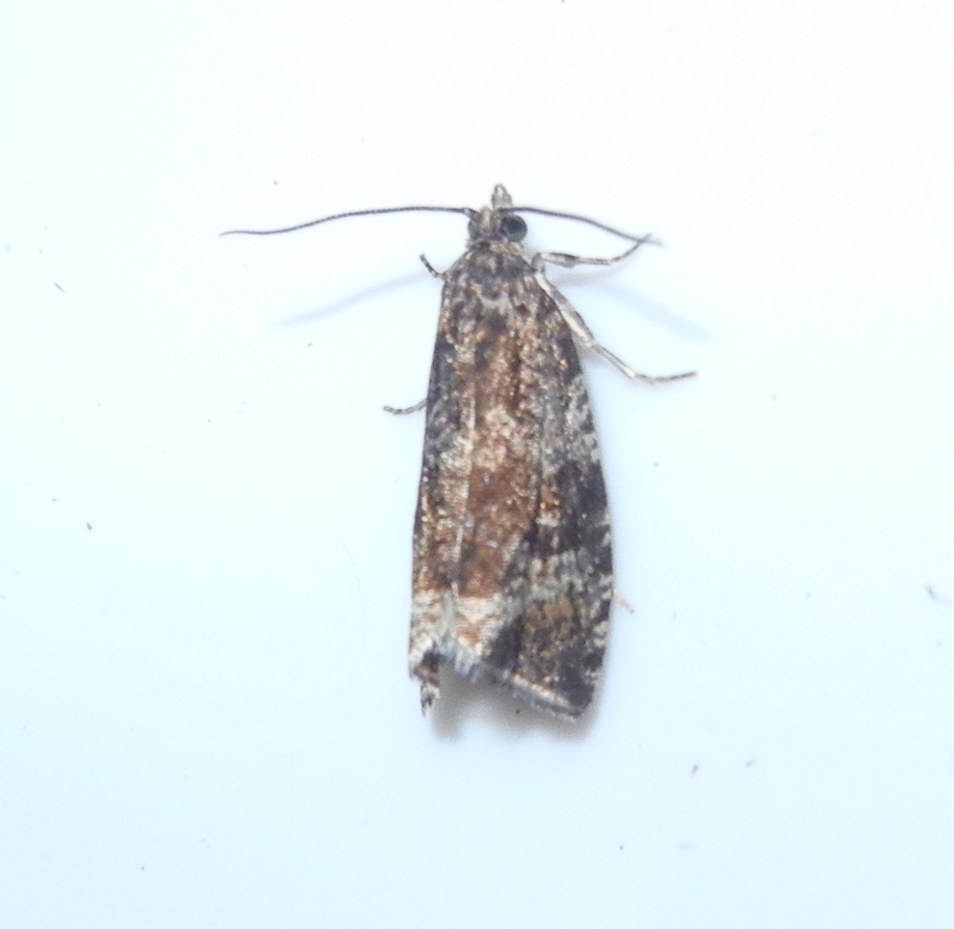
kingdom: Animalia
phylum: Arthropoda
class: Insecta
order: Lepidoptera
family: Tortricidae
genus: Syricoris
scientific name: Syricoris lacunana
